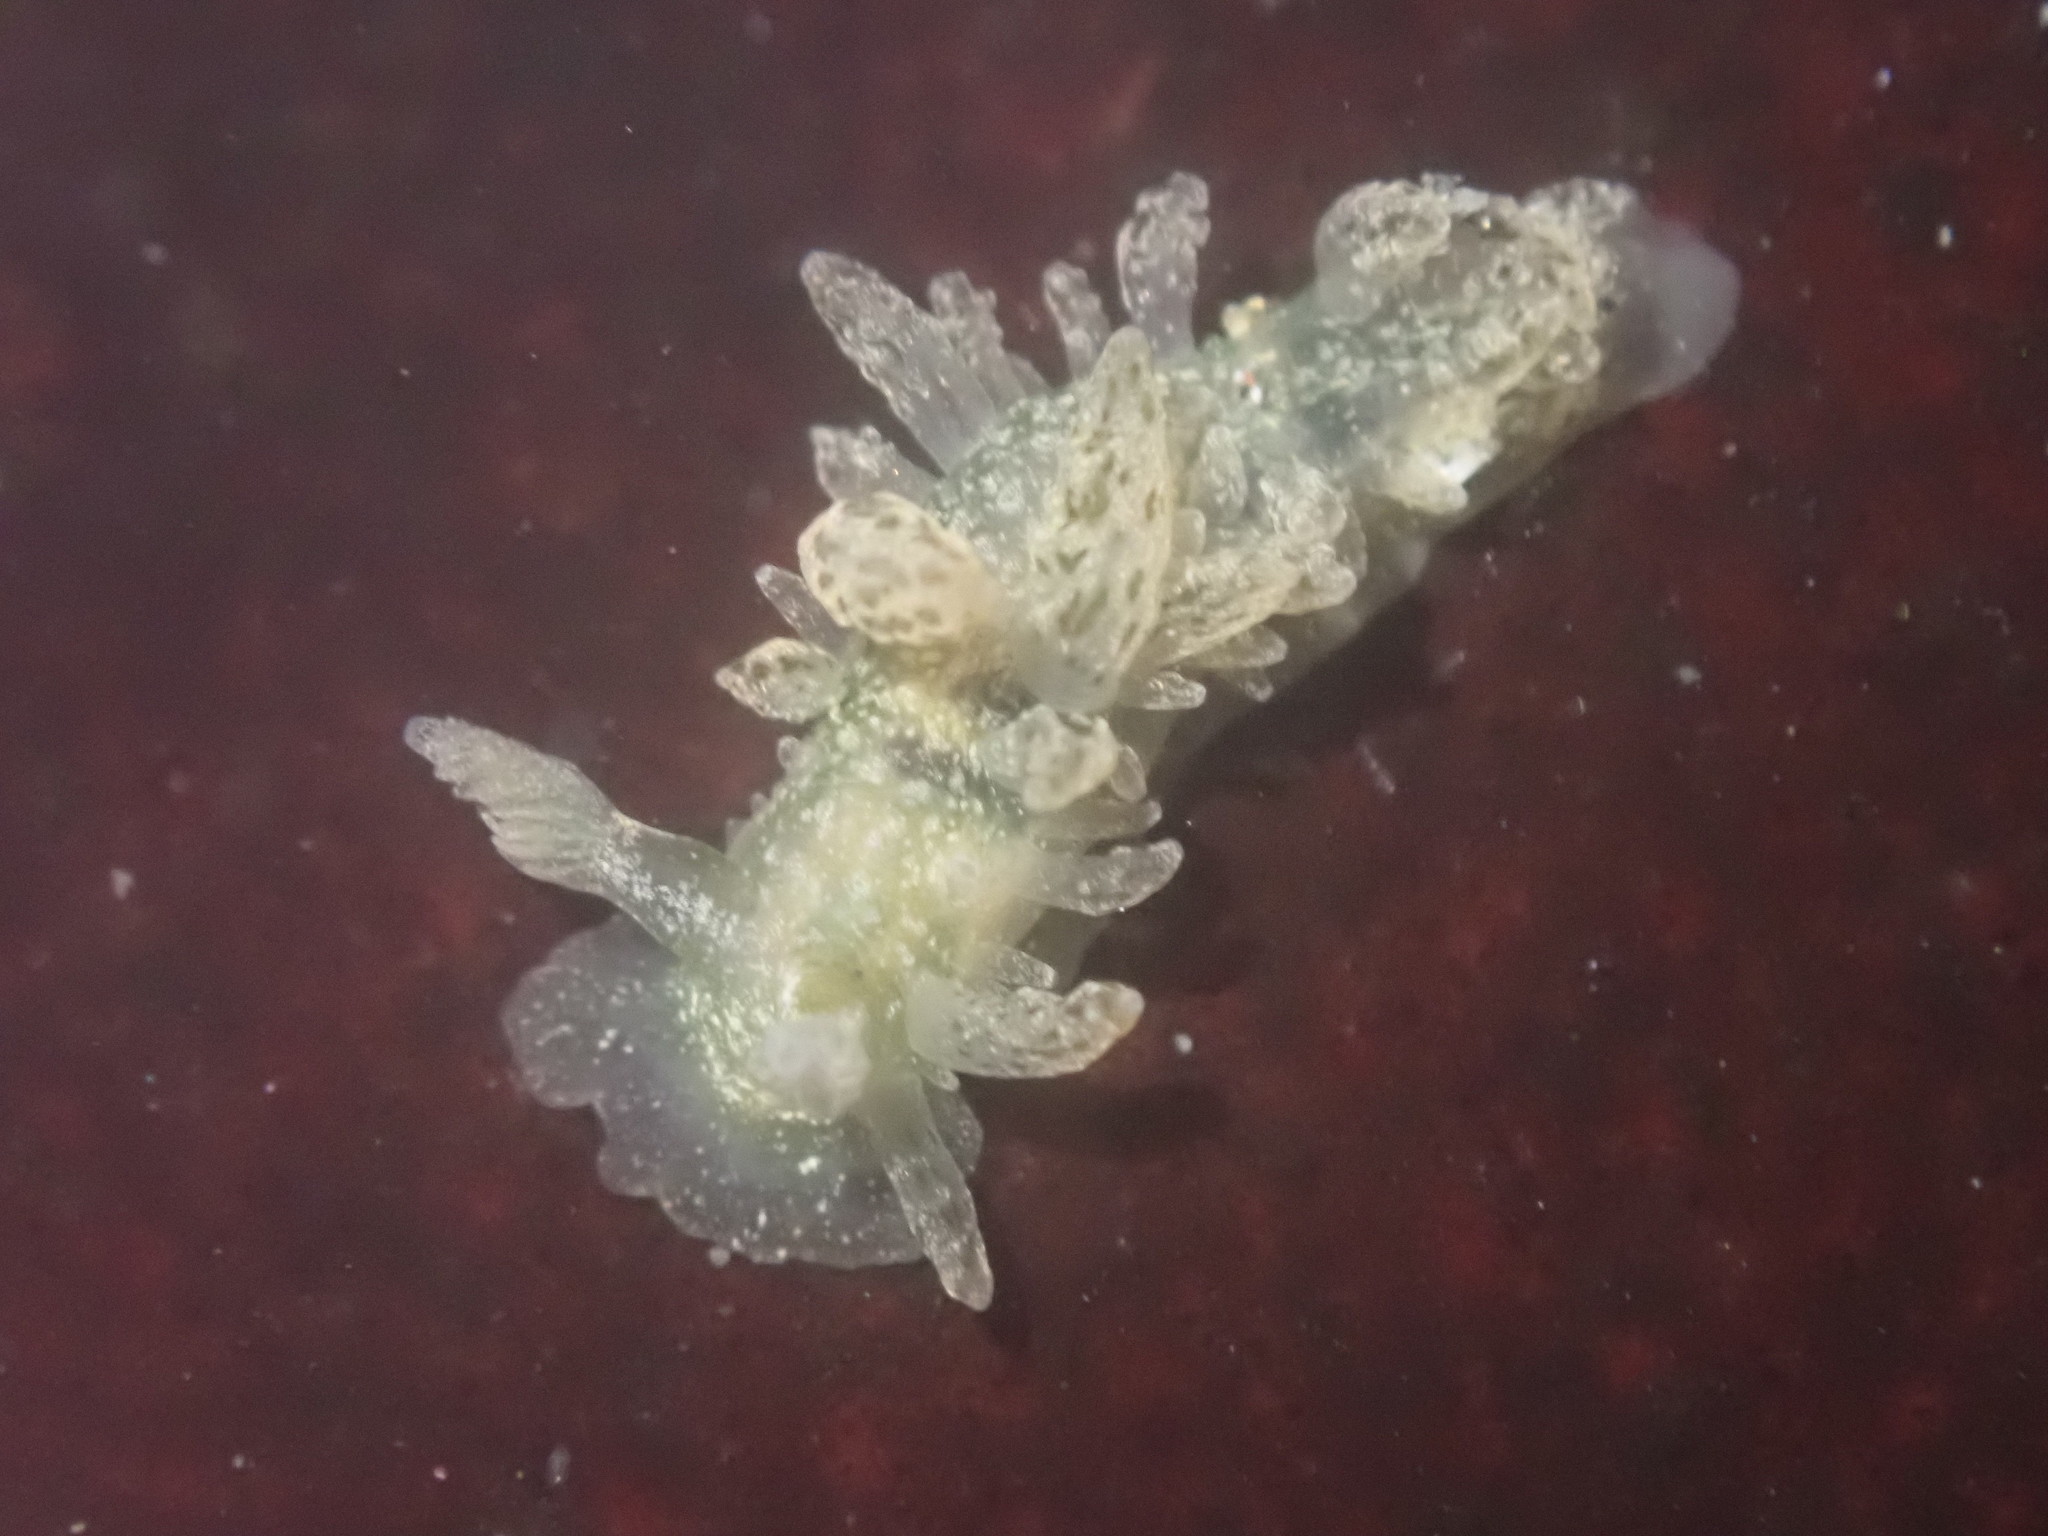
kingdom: Animalia
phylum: Mollusca
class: Gastropoda
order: Nudibranchia
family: Dironidae
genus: Dirona
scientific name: Dirona picta
